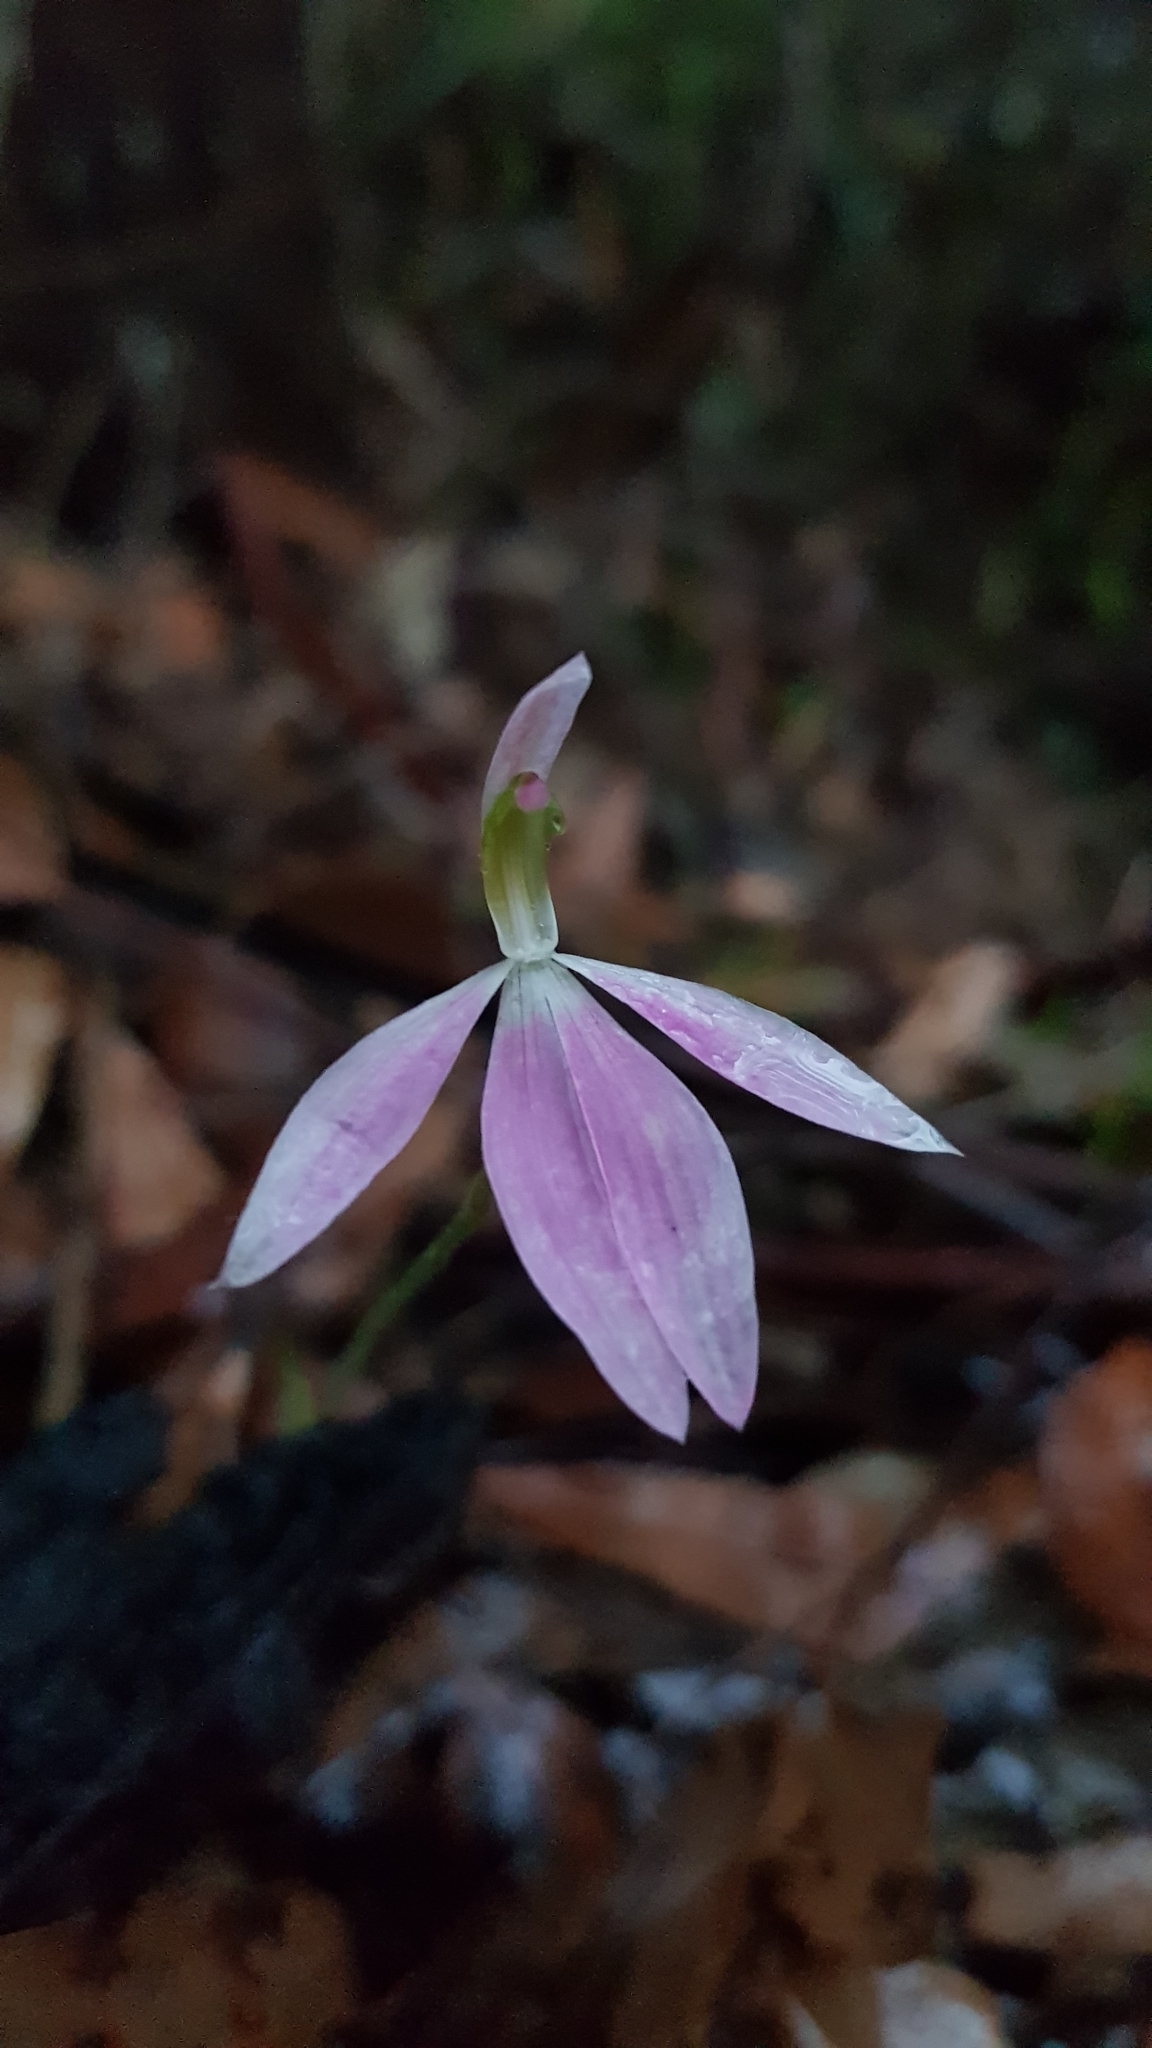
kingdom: Plantae
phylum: Tracheophyta
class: Liliopsida
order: Asparagales
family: Orchidaceae
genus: Caladenia
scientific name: Caladenia catenata
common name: White caladenia
